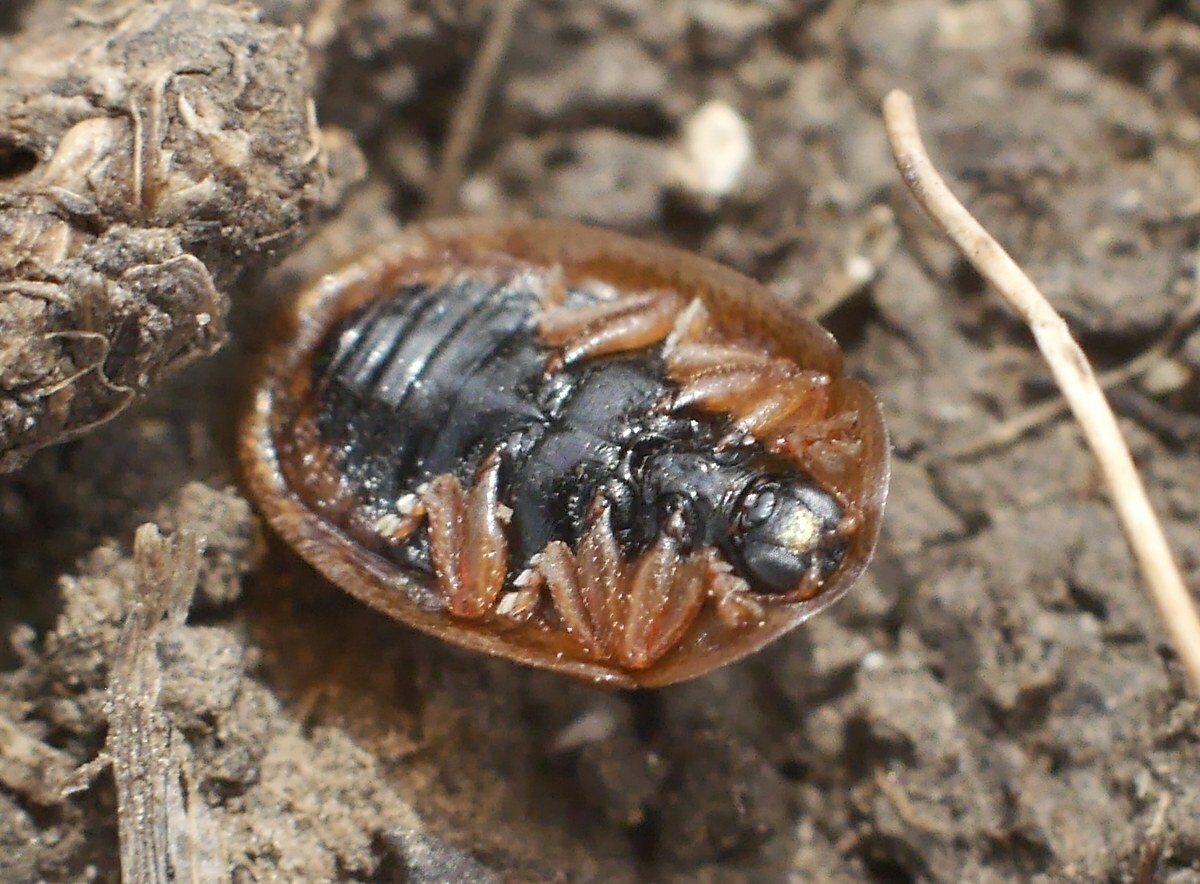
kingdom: Animalia
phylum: Arthropoda
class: Insecta
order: Coleoptera
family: Chrysomelidae
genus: Hypocassida
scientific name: Hypocassida subferruginea
